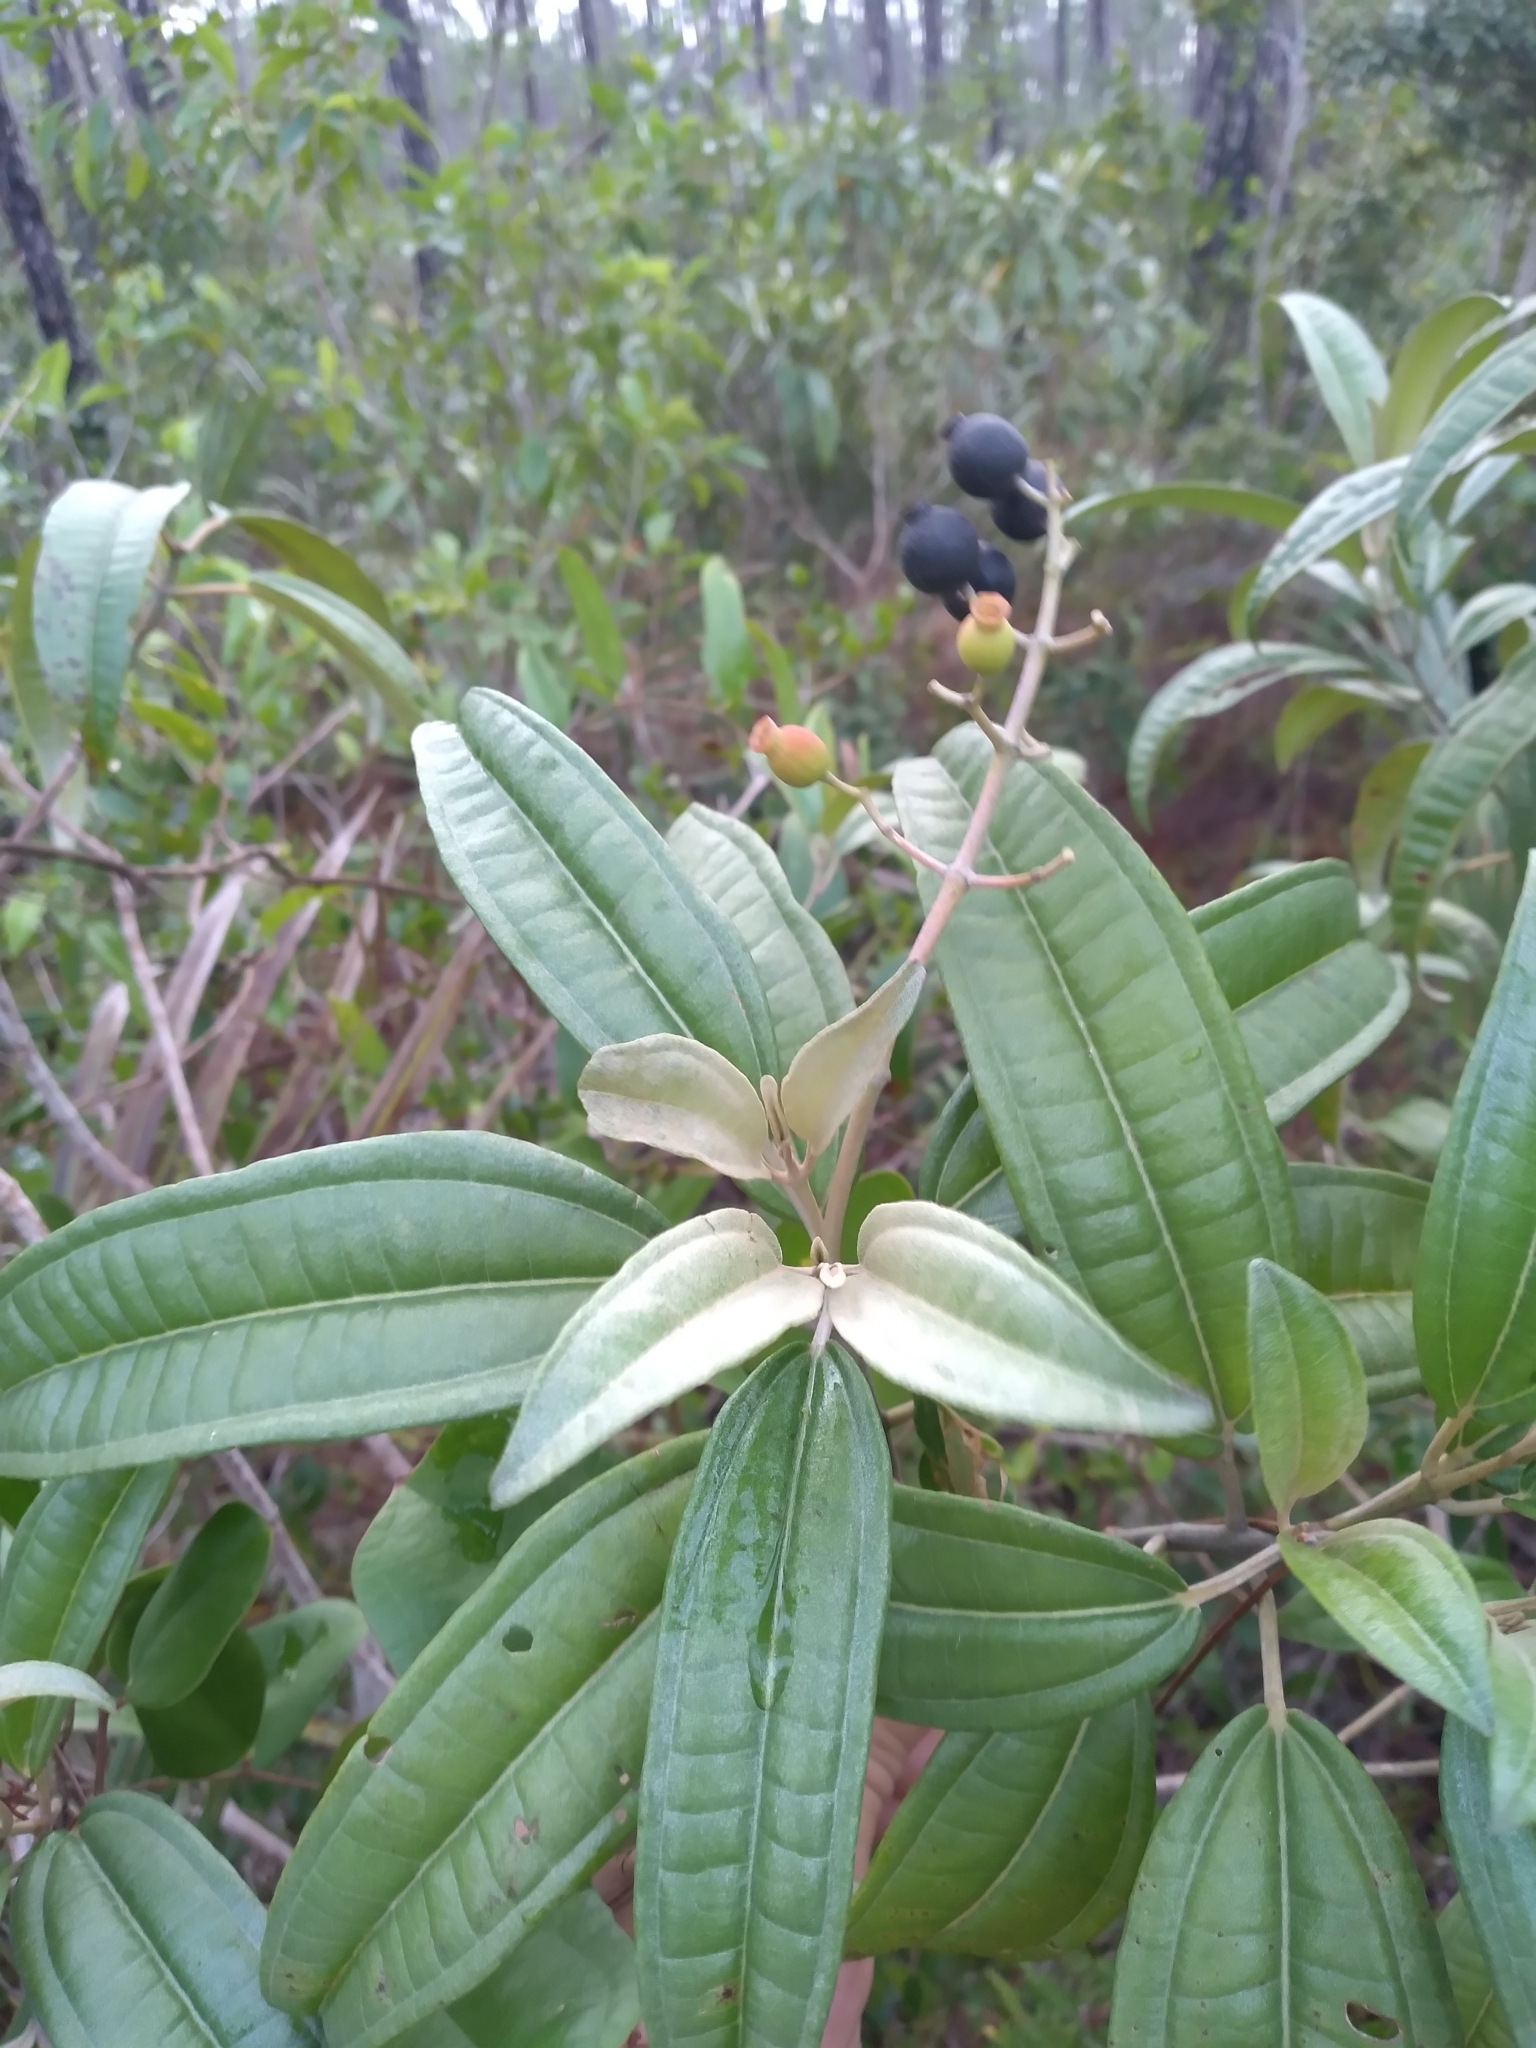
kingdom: Plantae
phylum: Tracheophyta
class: Magnoliopsida
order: Myrtales
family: Melastomataceae
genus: Miconia
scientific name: Miconia bicolor
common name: Johnnyberry
